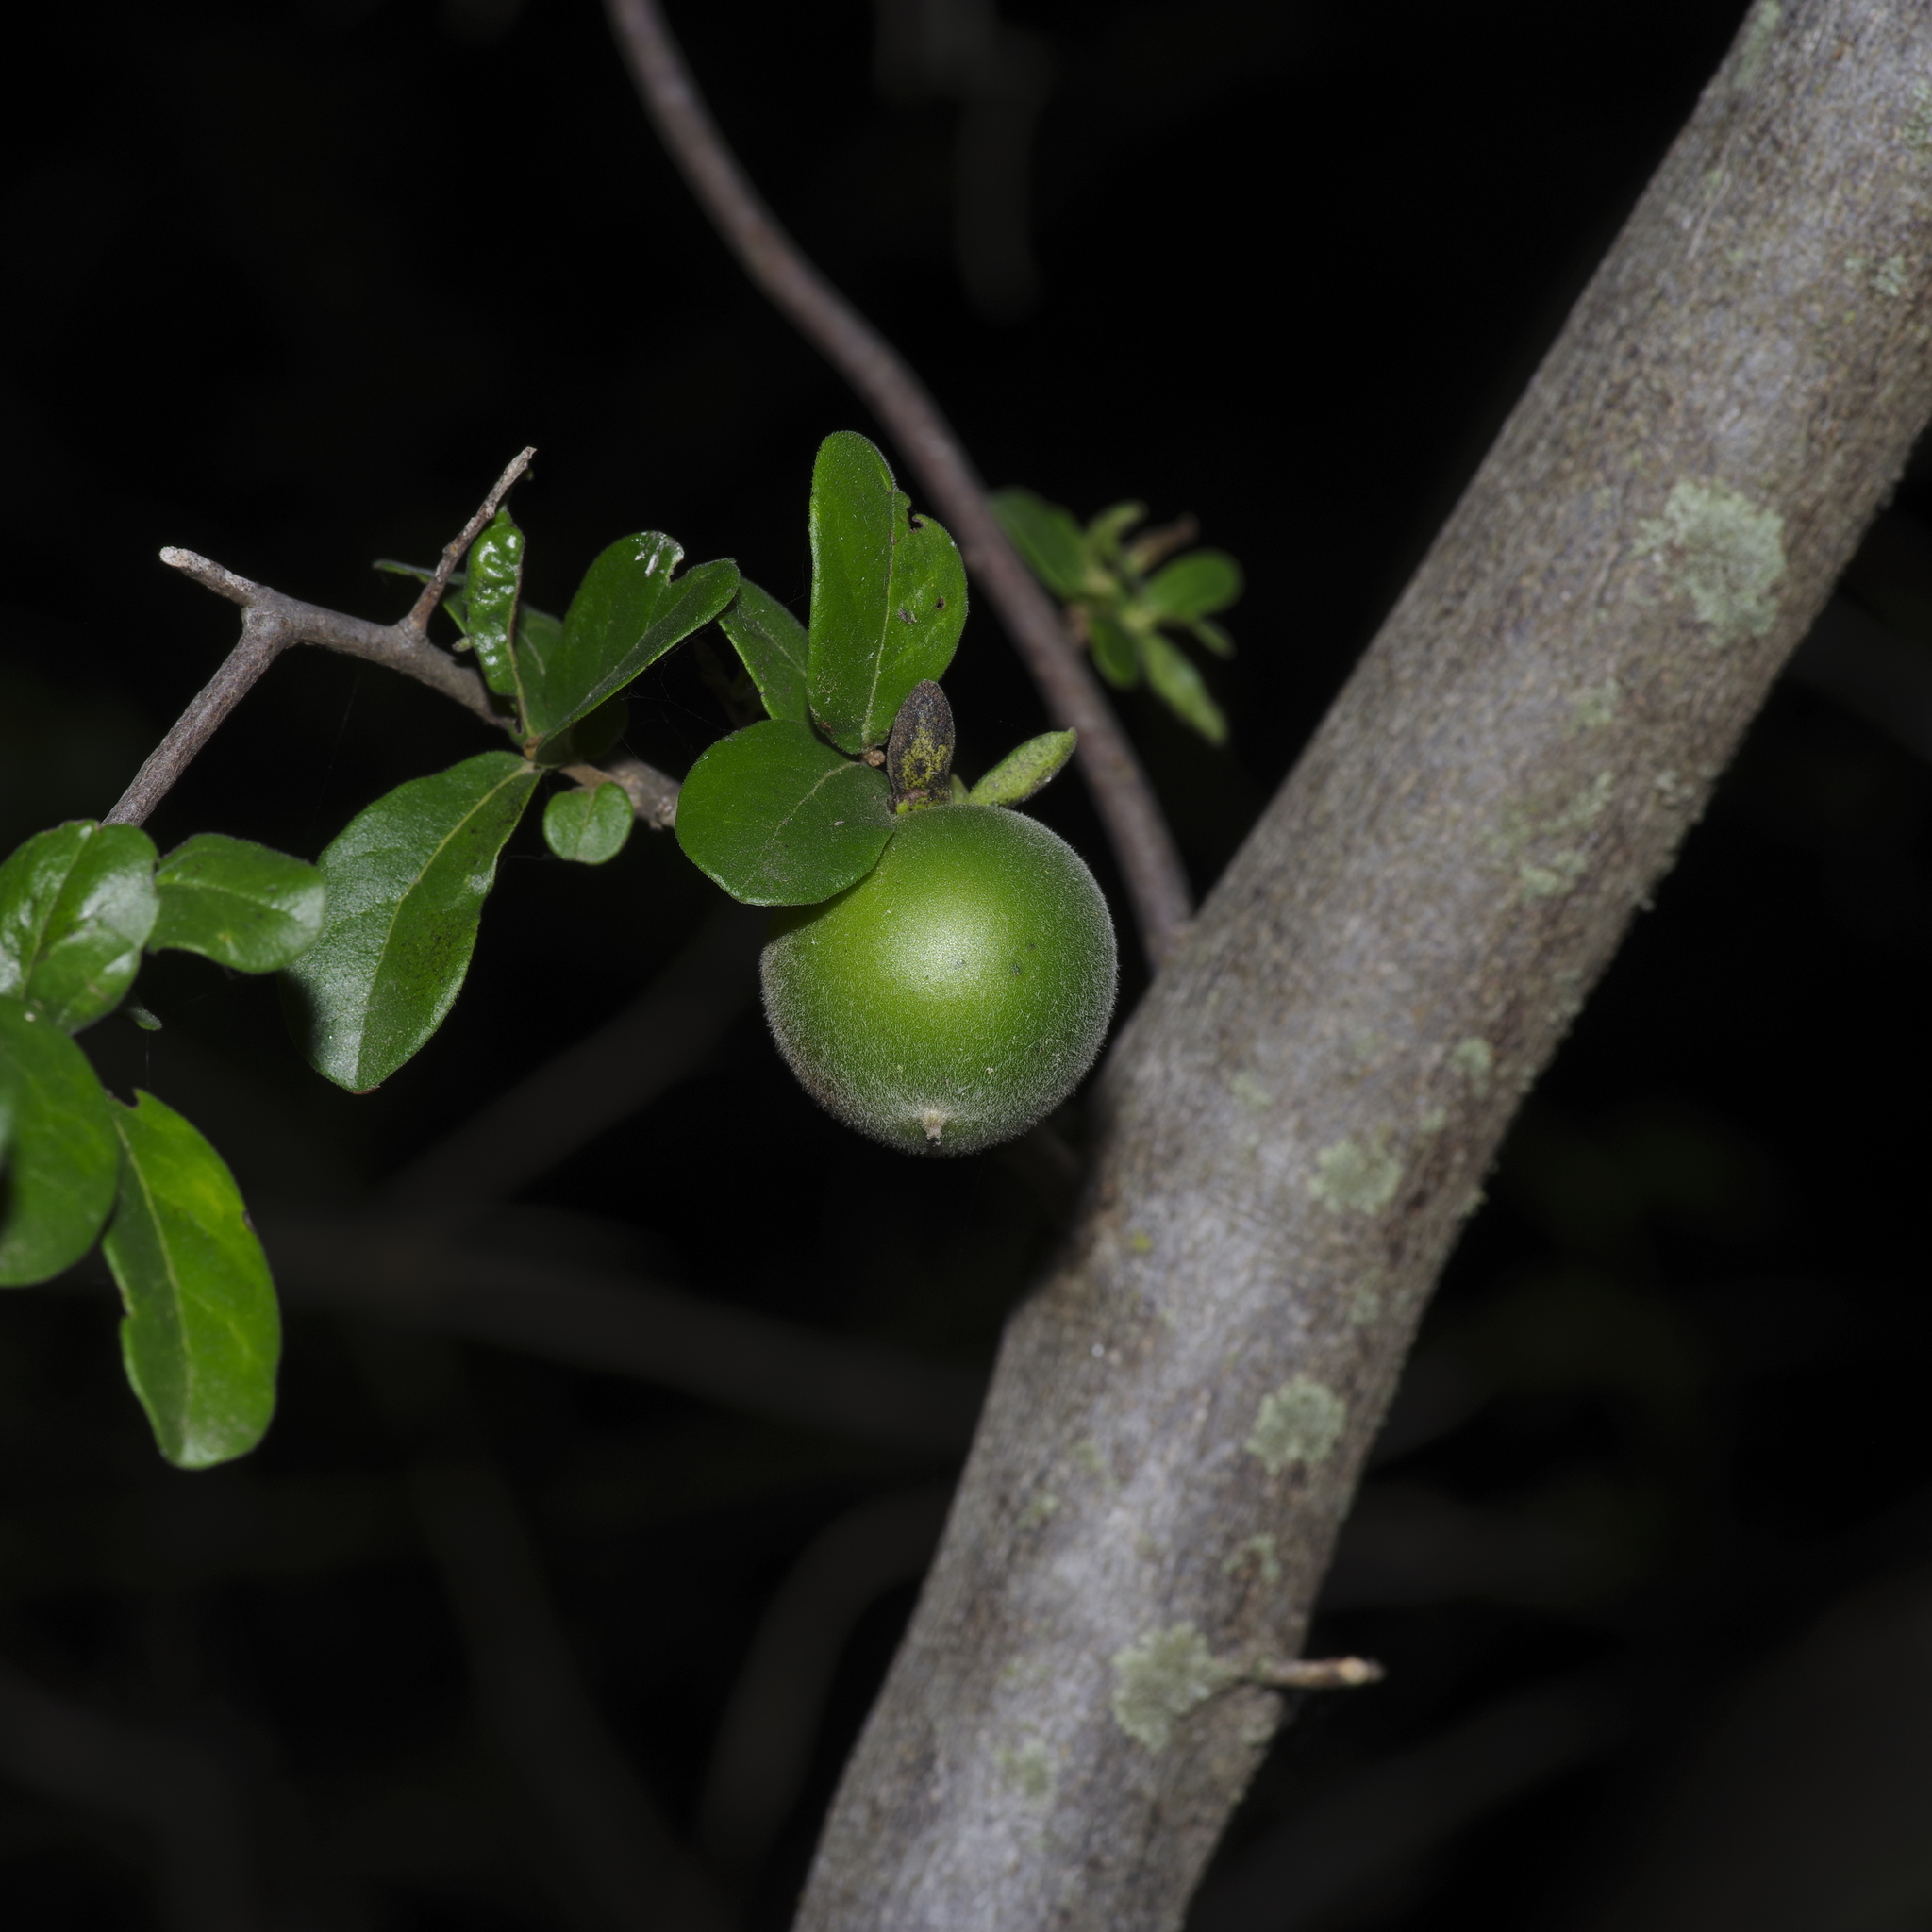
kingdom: Plantae
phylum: Tracheophyta
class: Magnoliopsida
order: Ericales
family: Ebenaceae
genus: Diospyros
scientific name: Diospyros texana
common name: Texas persimmon
